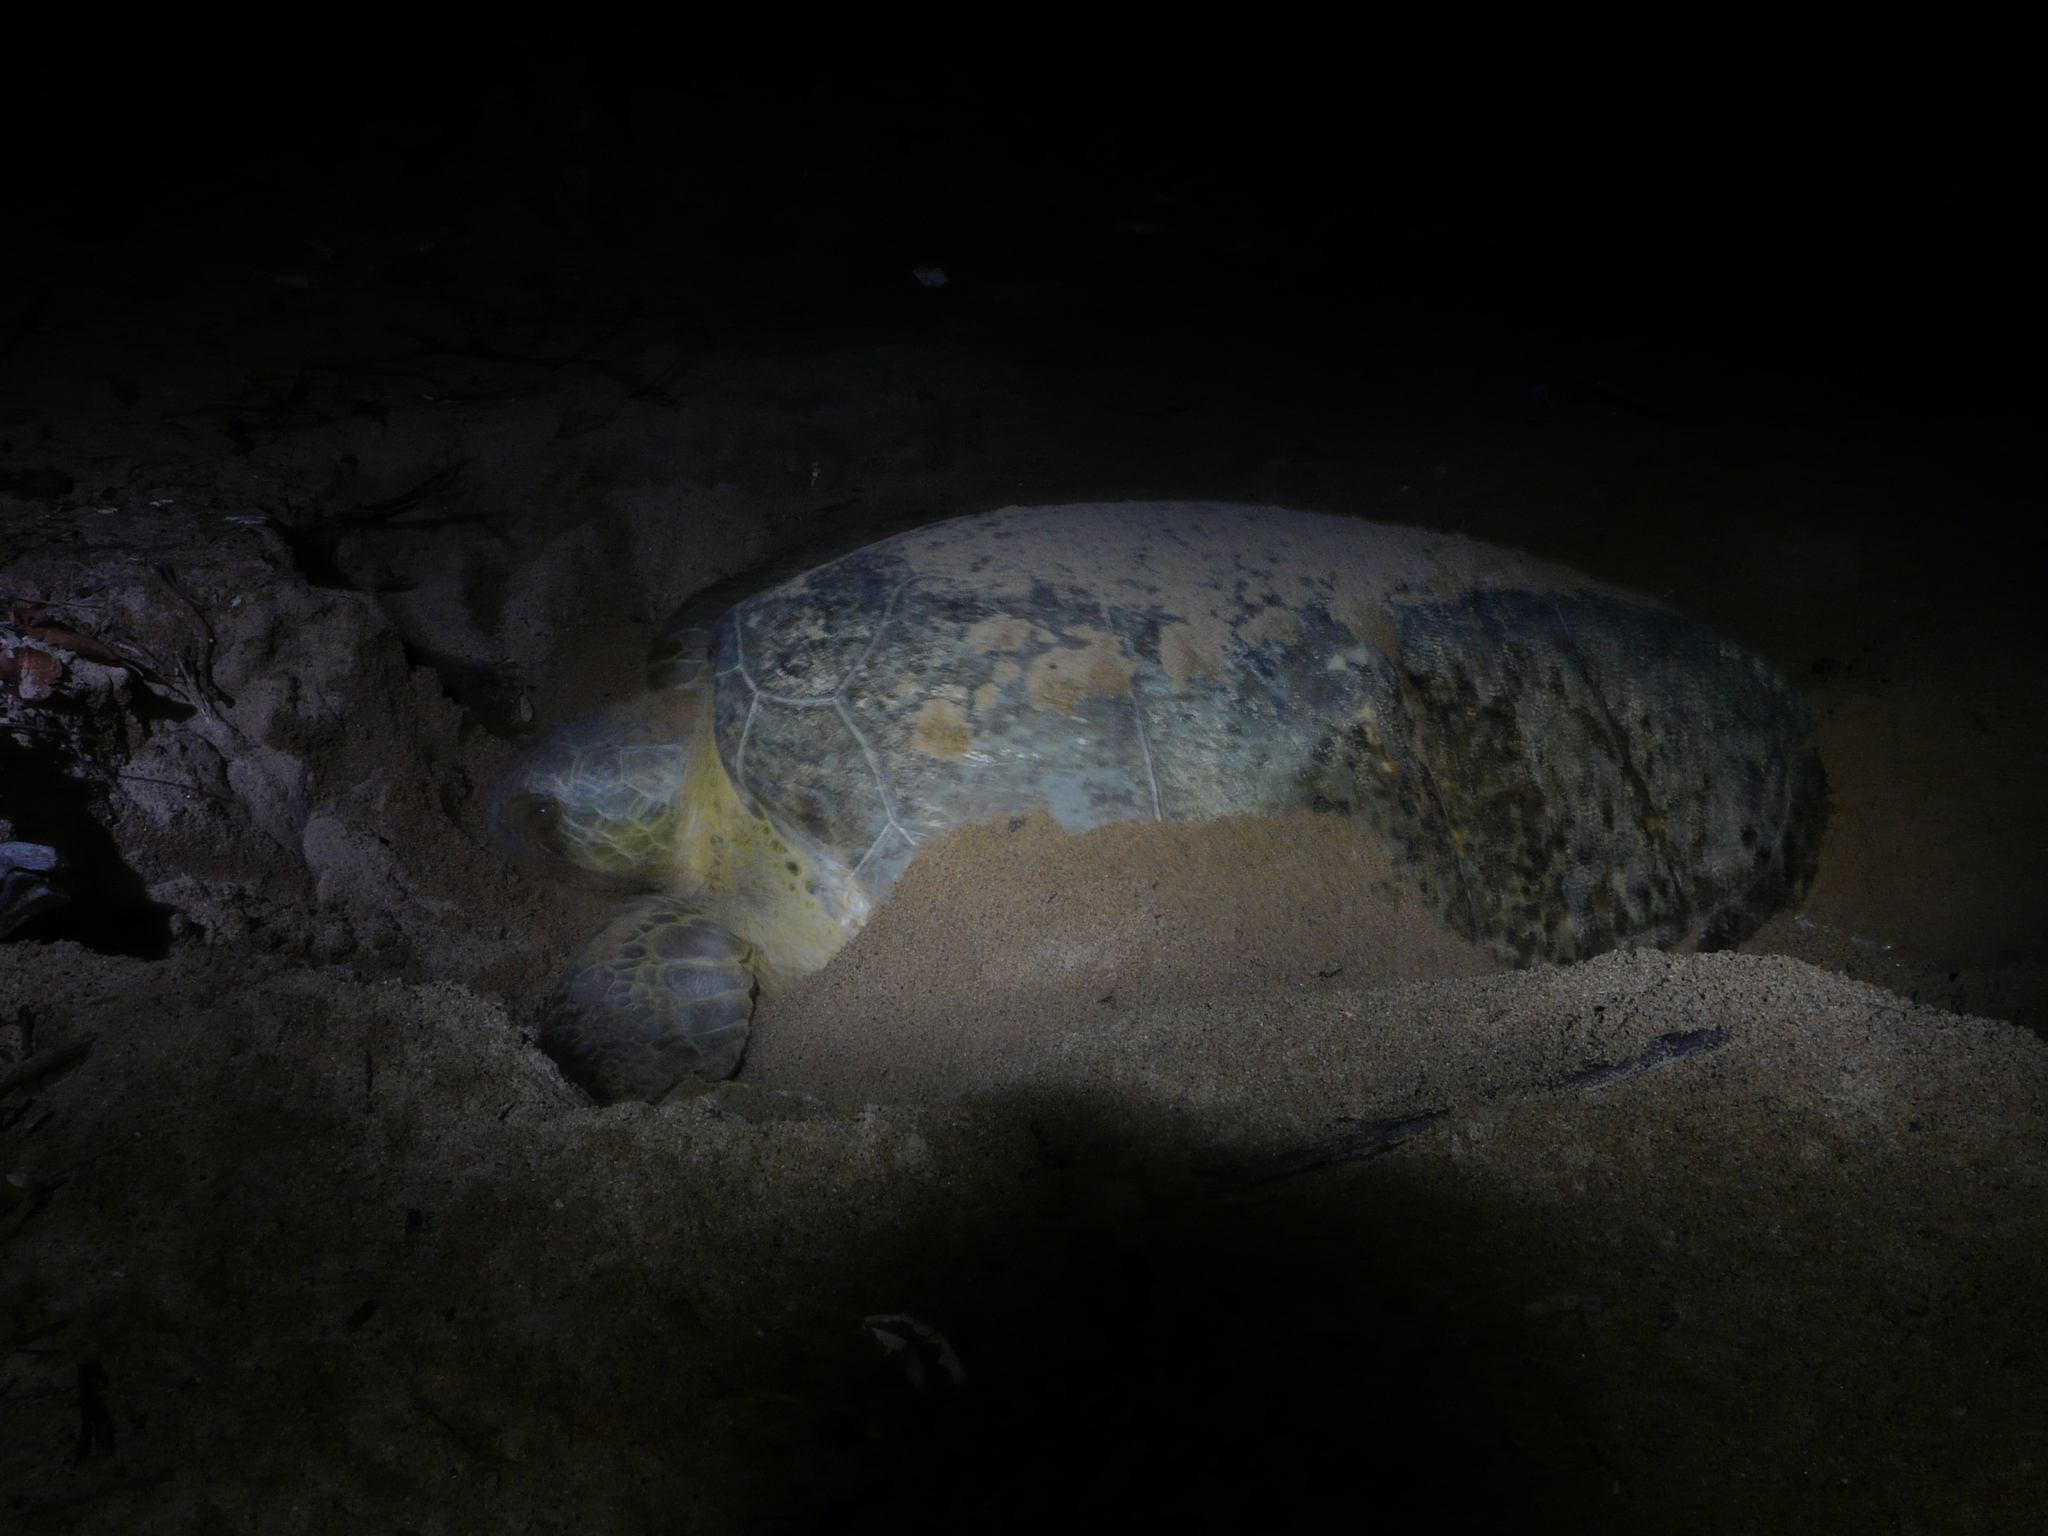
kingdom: Animalia
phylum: Chordata
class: Testudines
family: Cheloniidae
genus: Chelonia
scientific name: Chelonia mydas
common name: Green turtle
